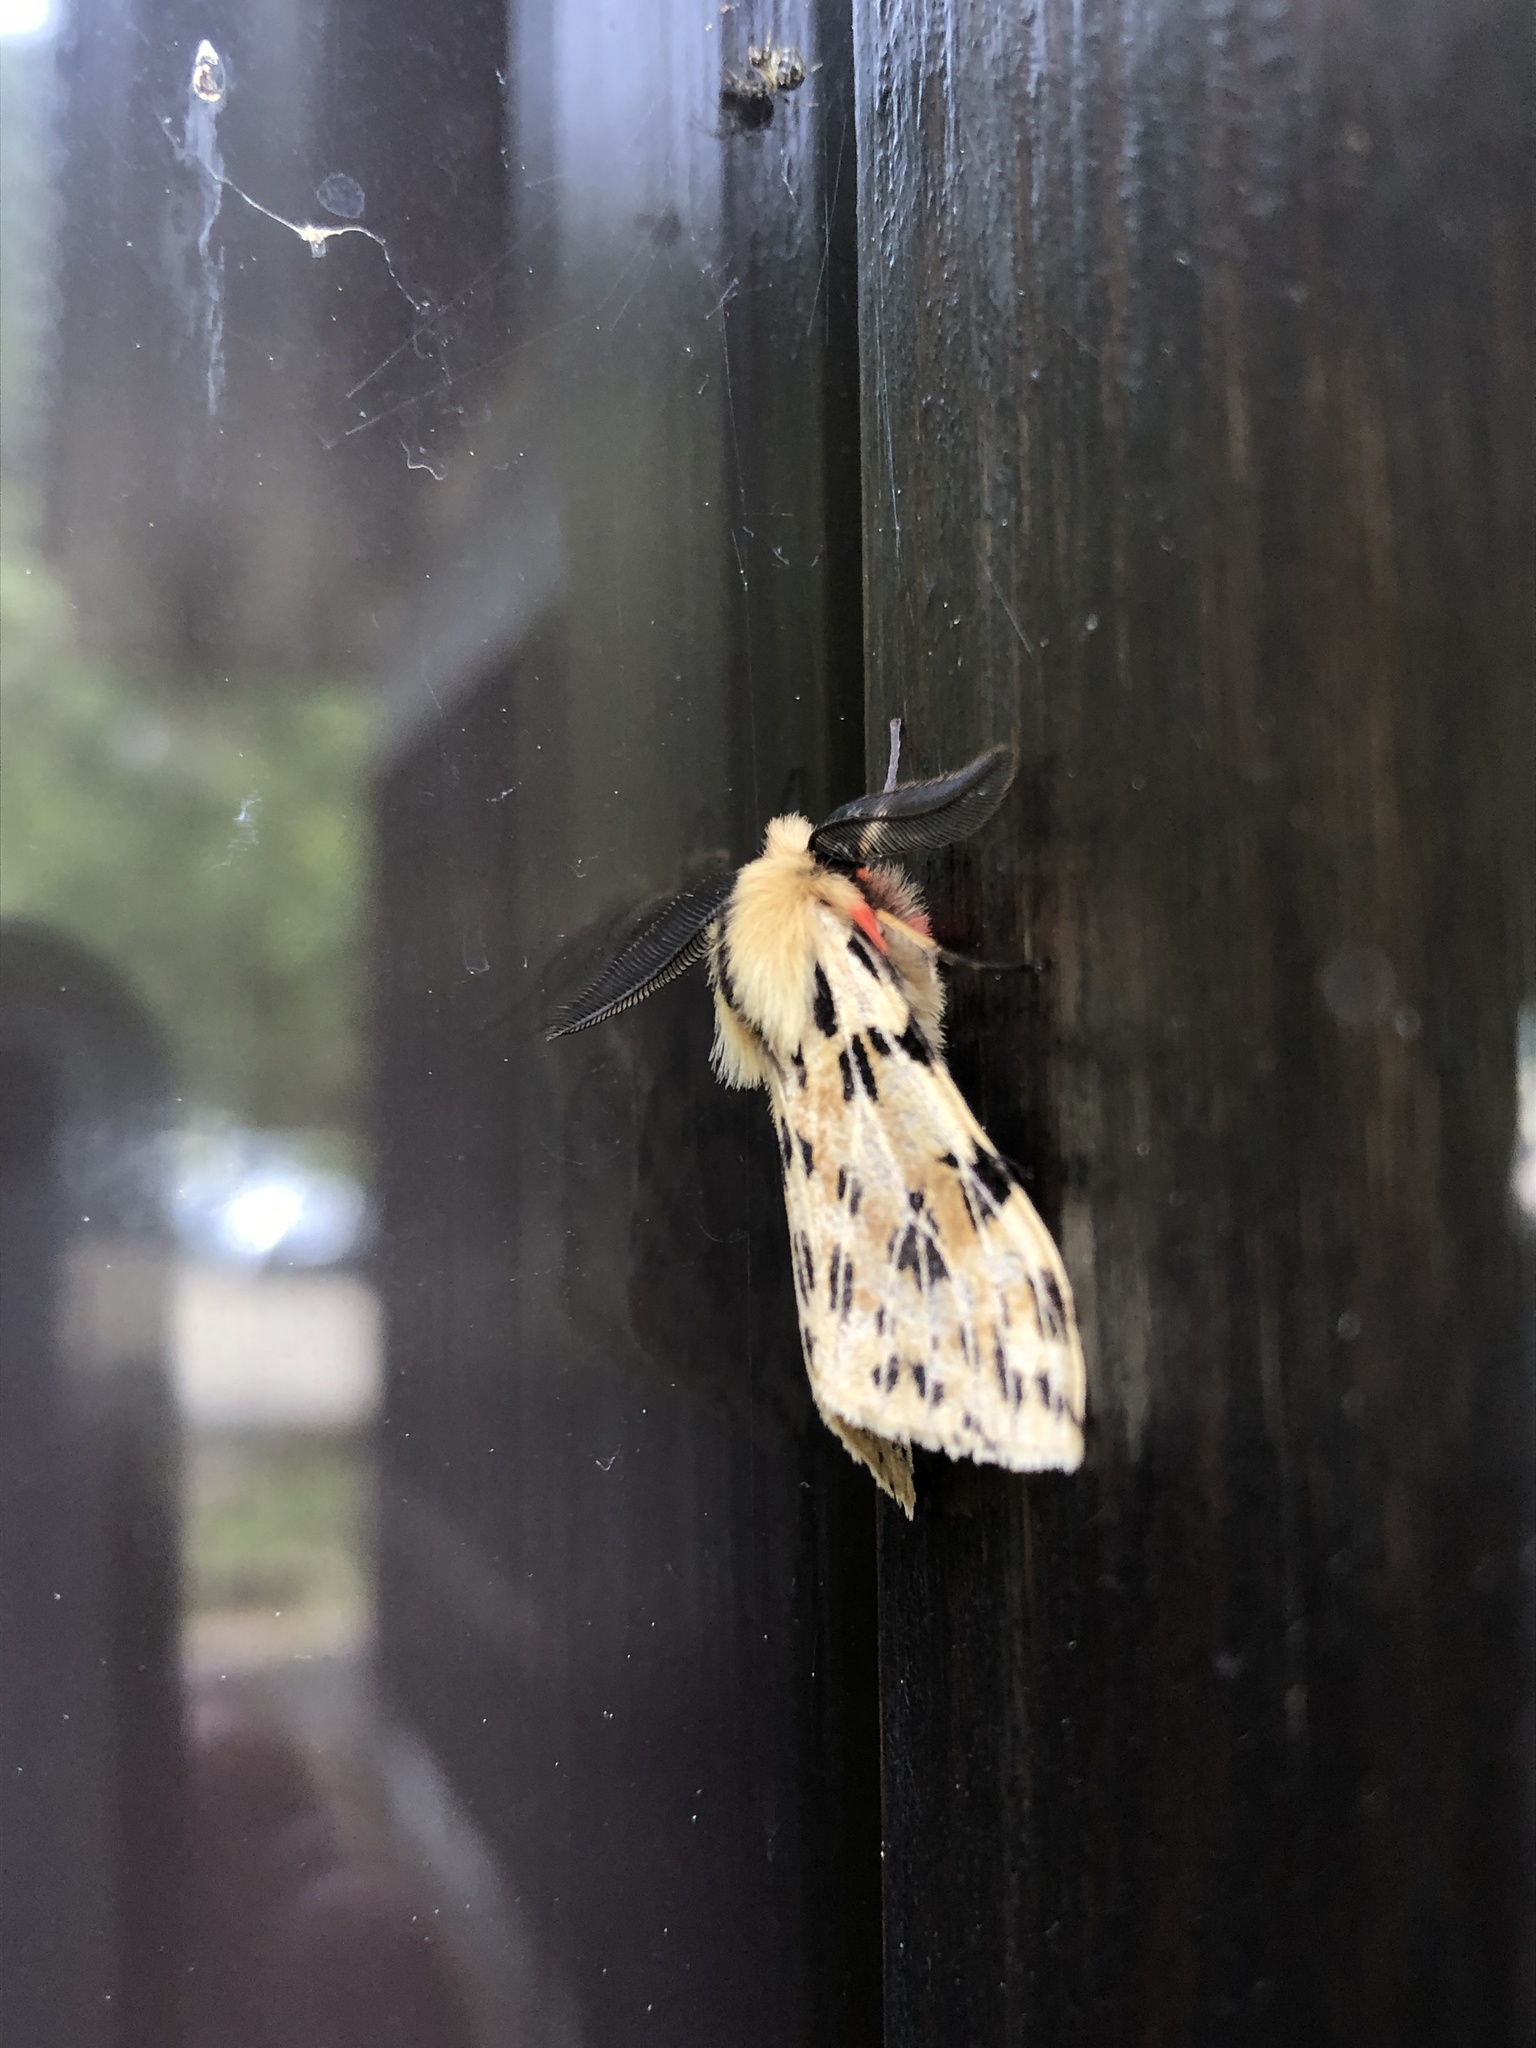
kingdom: Animalia
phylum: Arthropoda
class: Insecta
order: Lepidoptera
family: Erebidae
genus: Eospilarctia
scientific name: Eospilarctia neurographa
